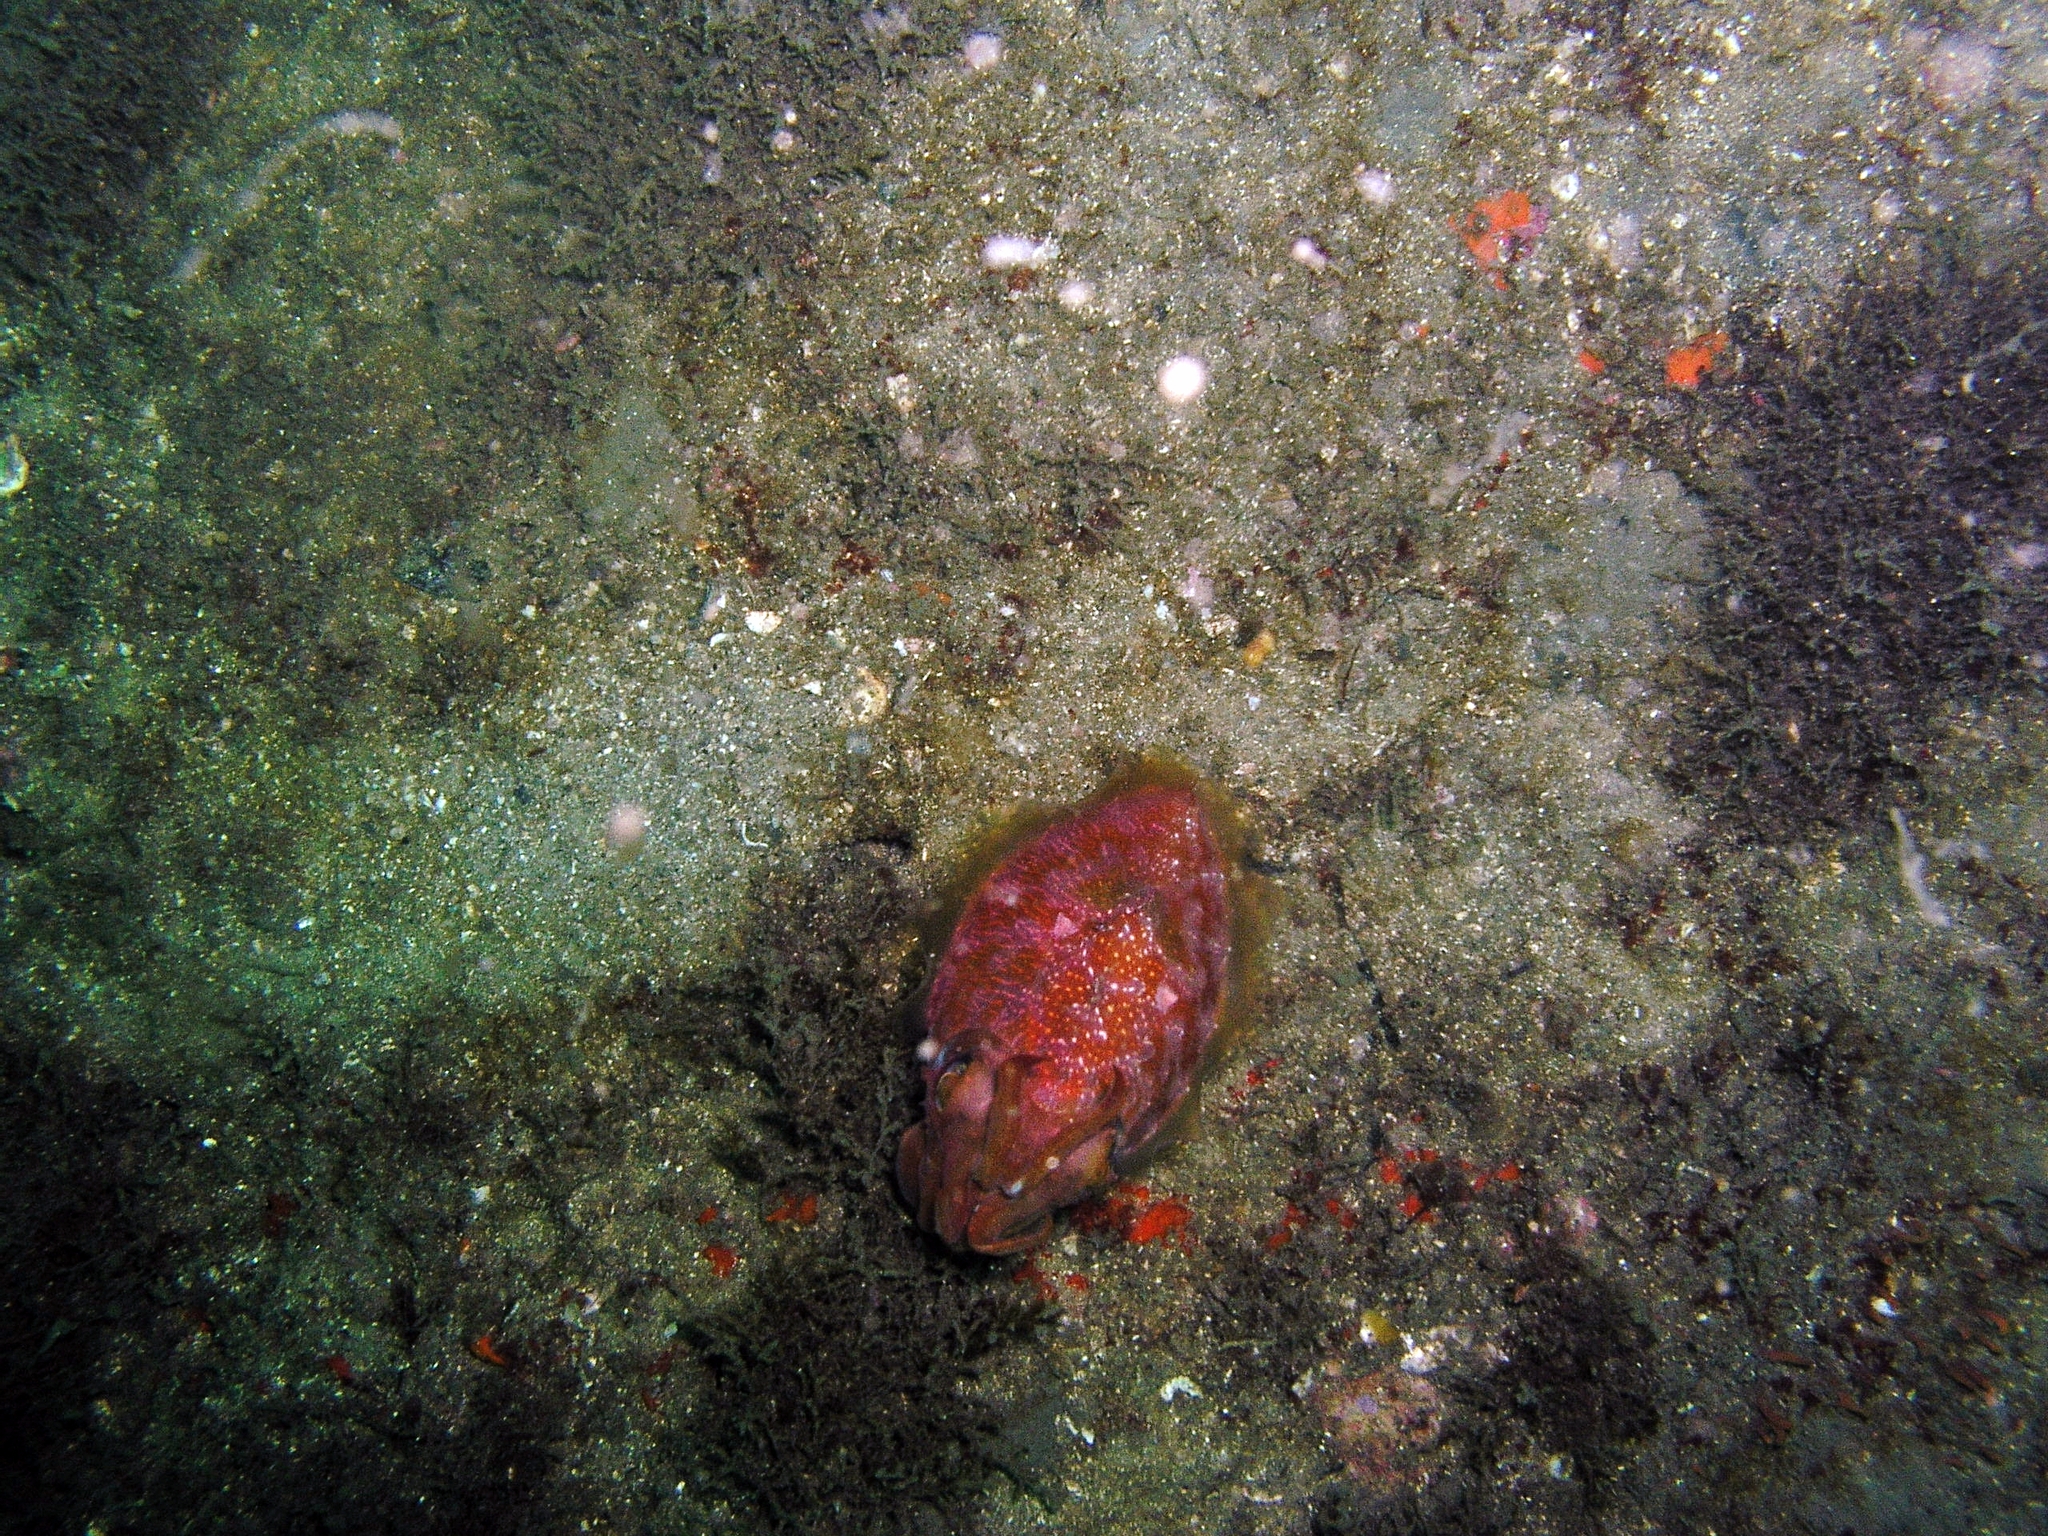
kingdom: Animalia
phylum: Mollusca
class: Cephalopoda
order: Sepiida
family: Sepiidae
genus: Sepia
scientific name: Sepia grahami
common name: Ken's cuttlefish
